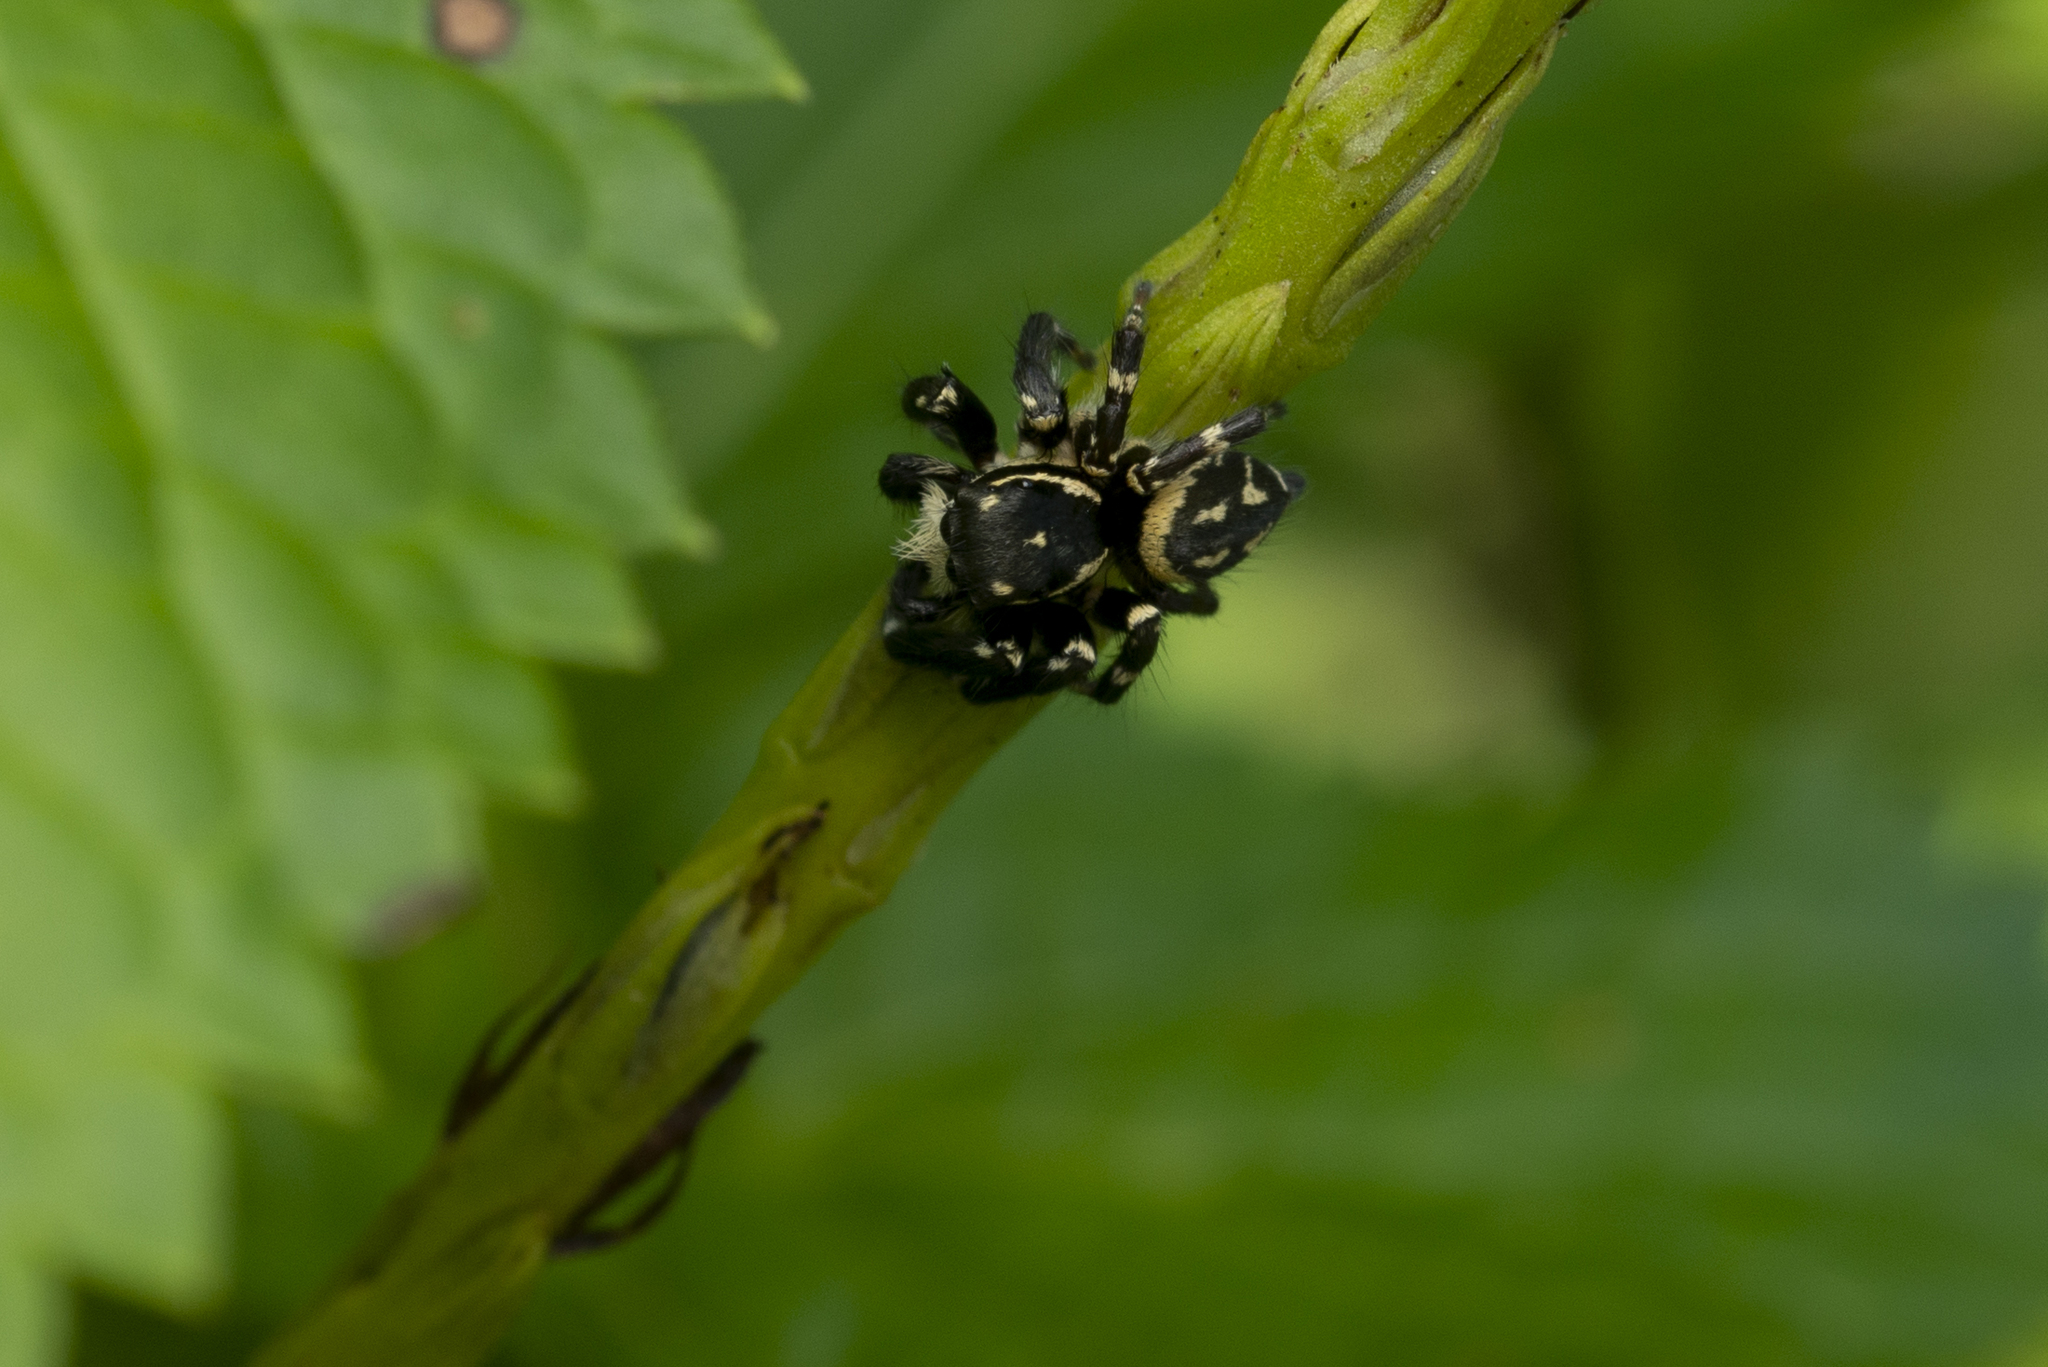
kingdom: Animalia
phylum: Arthropoda
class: Arachnida
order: Araneae
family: Salticidae
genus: Carrhotus
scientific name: Carrhotus sannio
